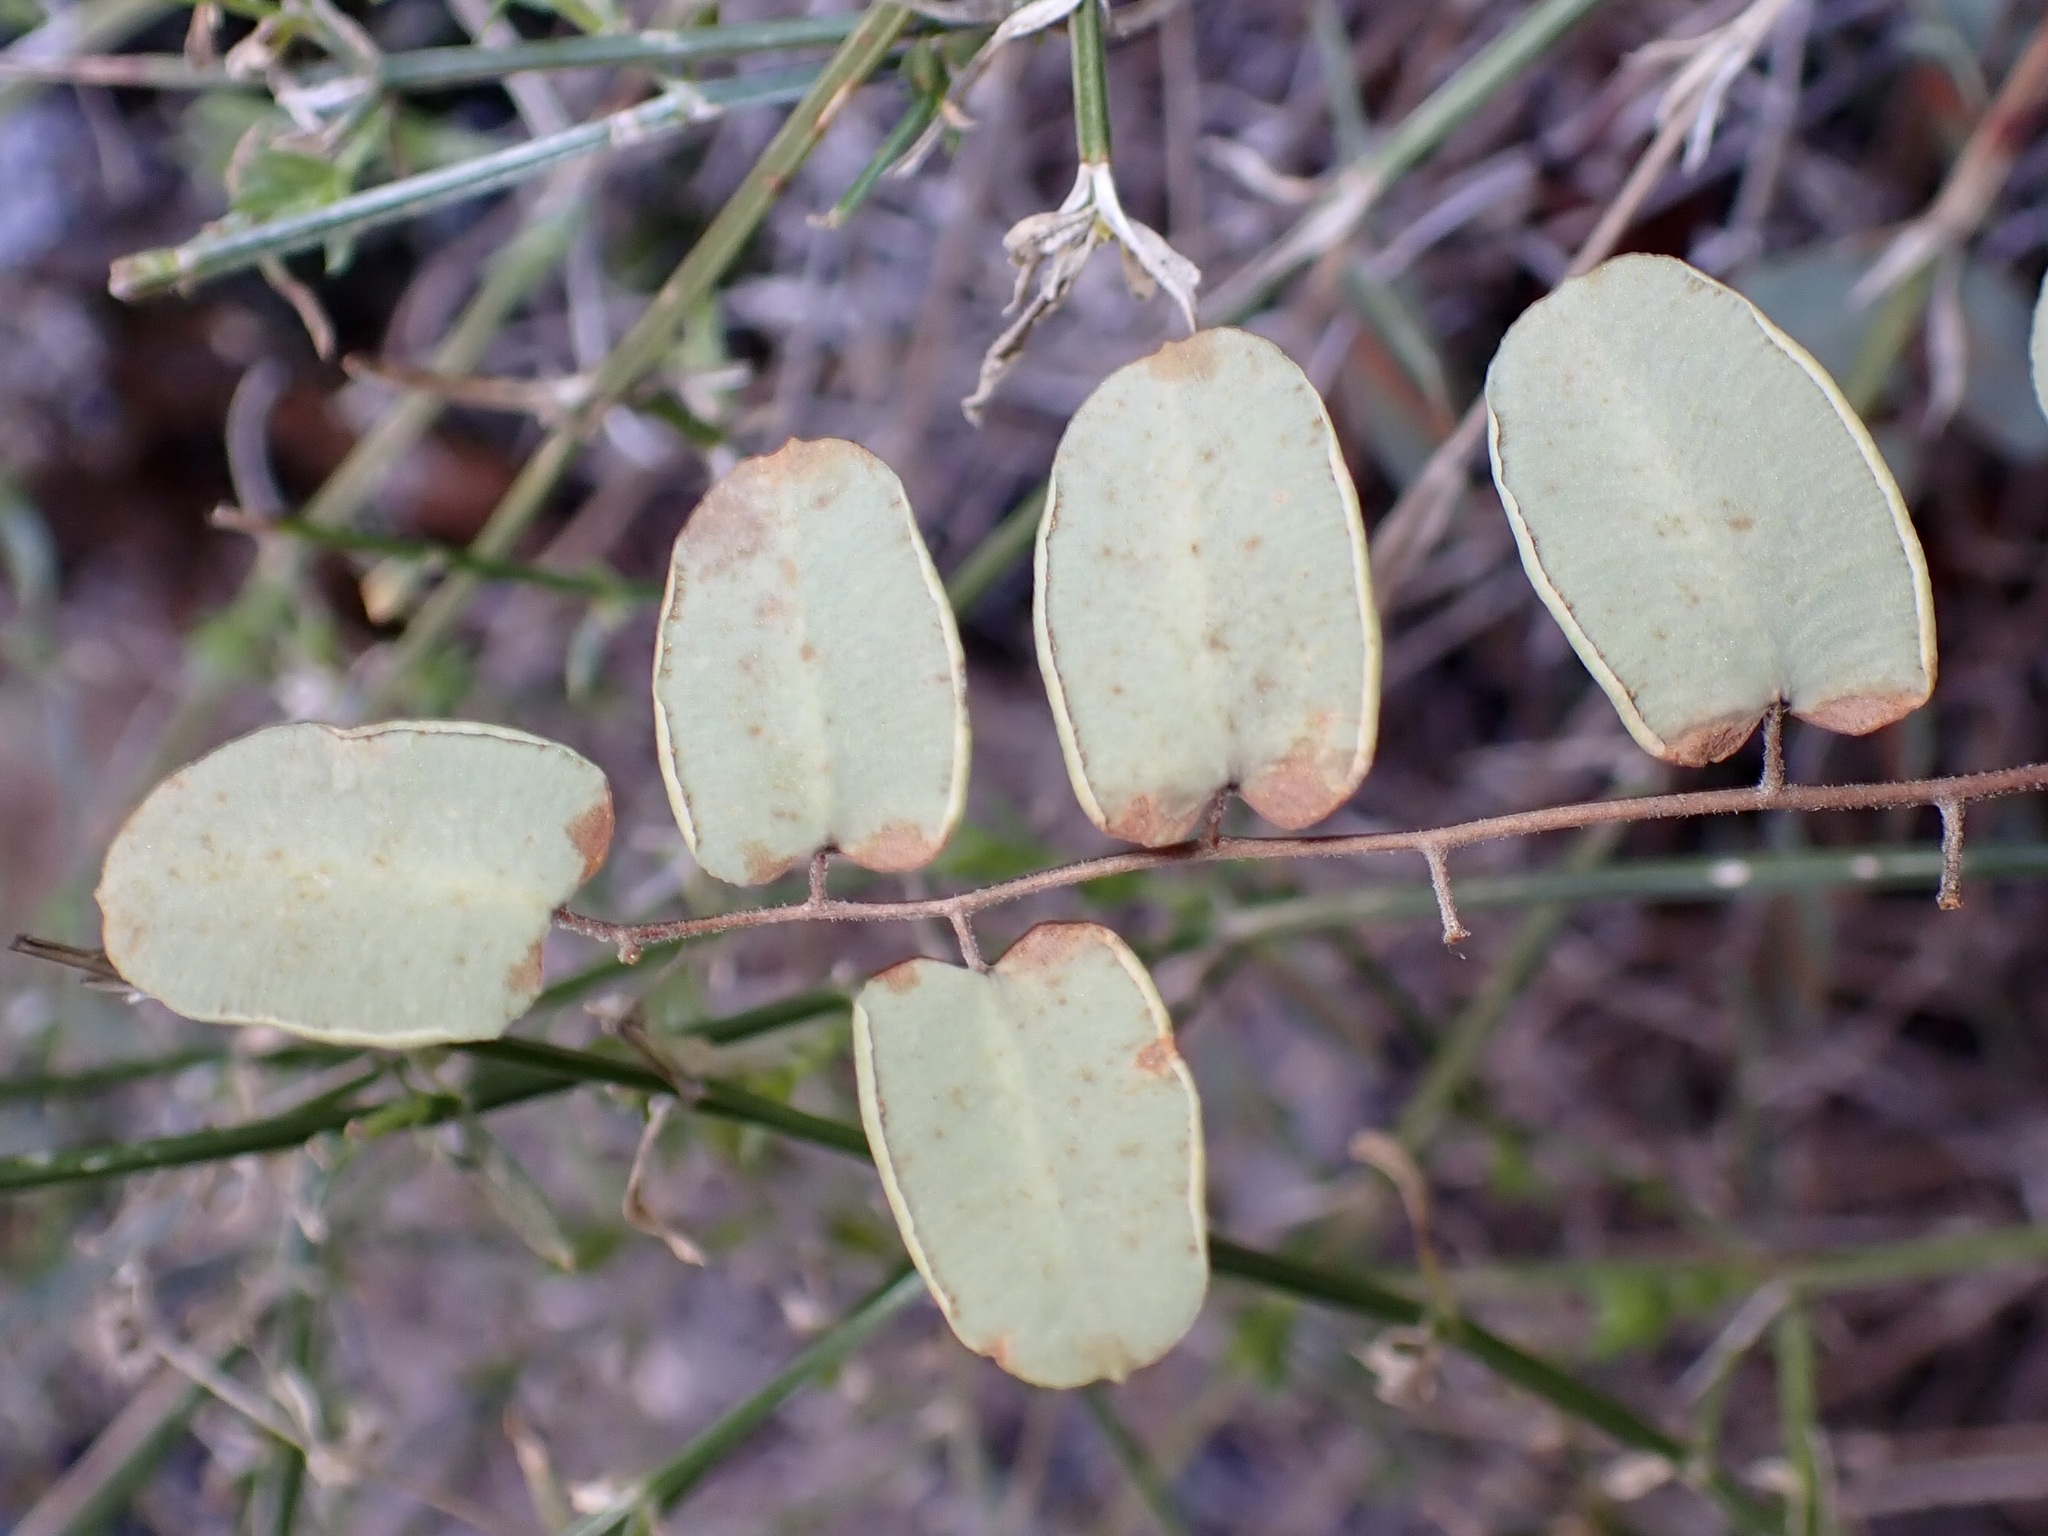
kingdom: Plantae
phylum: Tracheophyta
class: Polypodiopsida
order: Polypodiales
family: Pteridaceae
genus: Pellaea
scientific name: Pellaea intermedia
